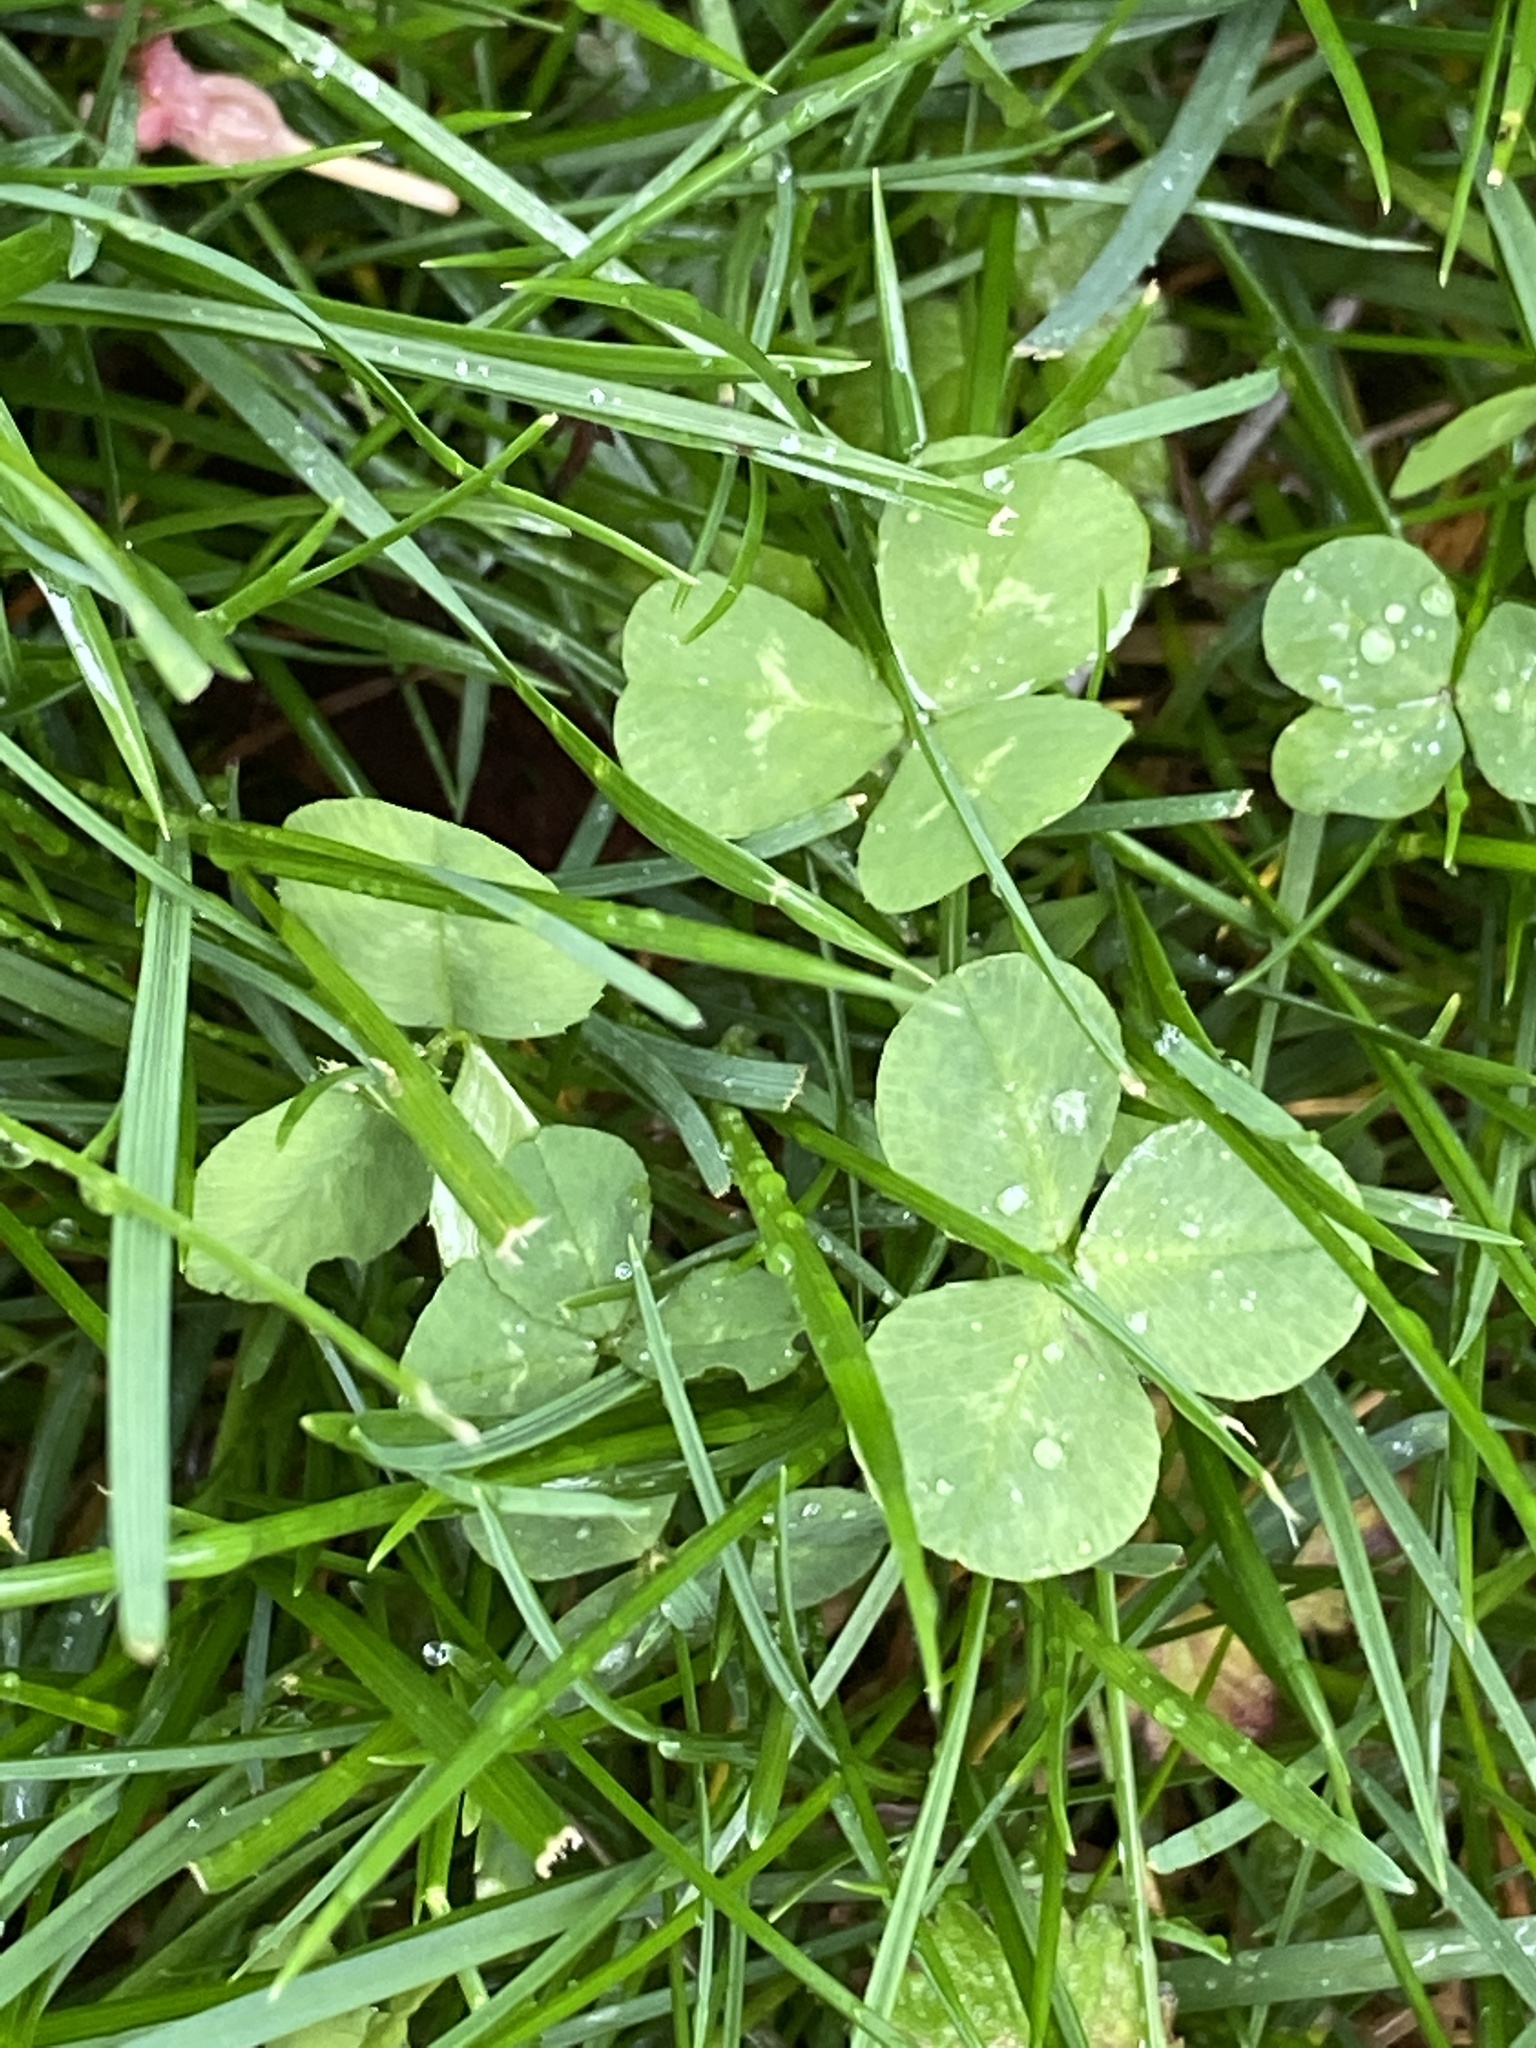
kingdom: Plantae
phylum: Tracheophyta
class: Magnoliopsida
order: Fabales
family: Fabaceae
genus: Trifolium
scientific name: Trifolium repens
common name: White clover
